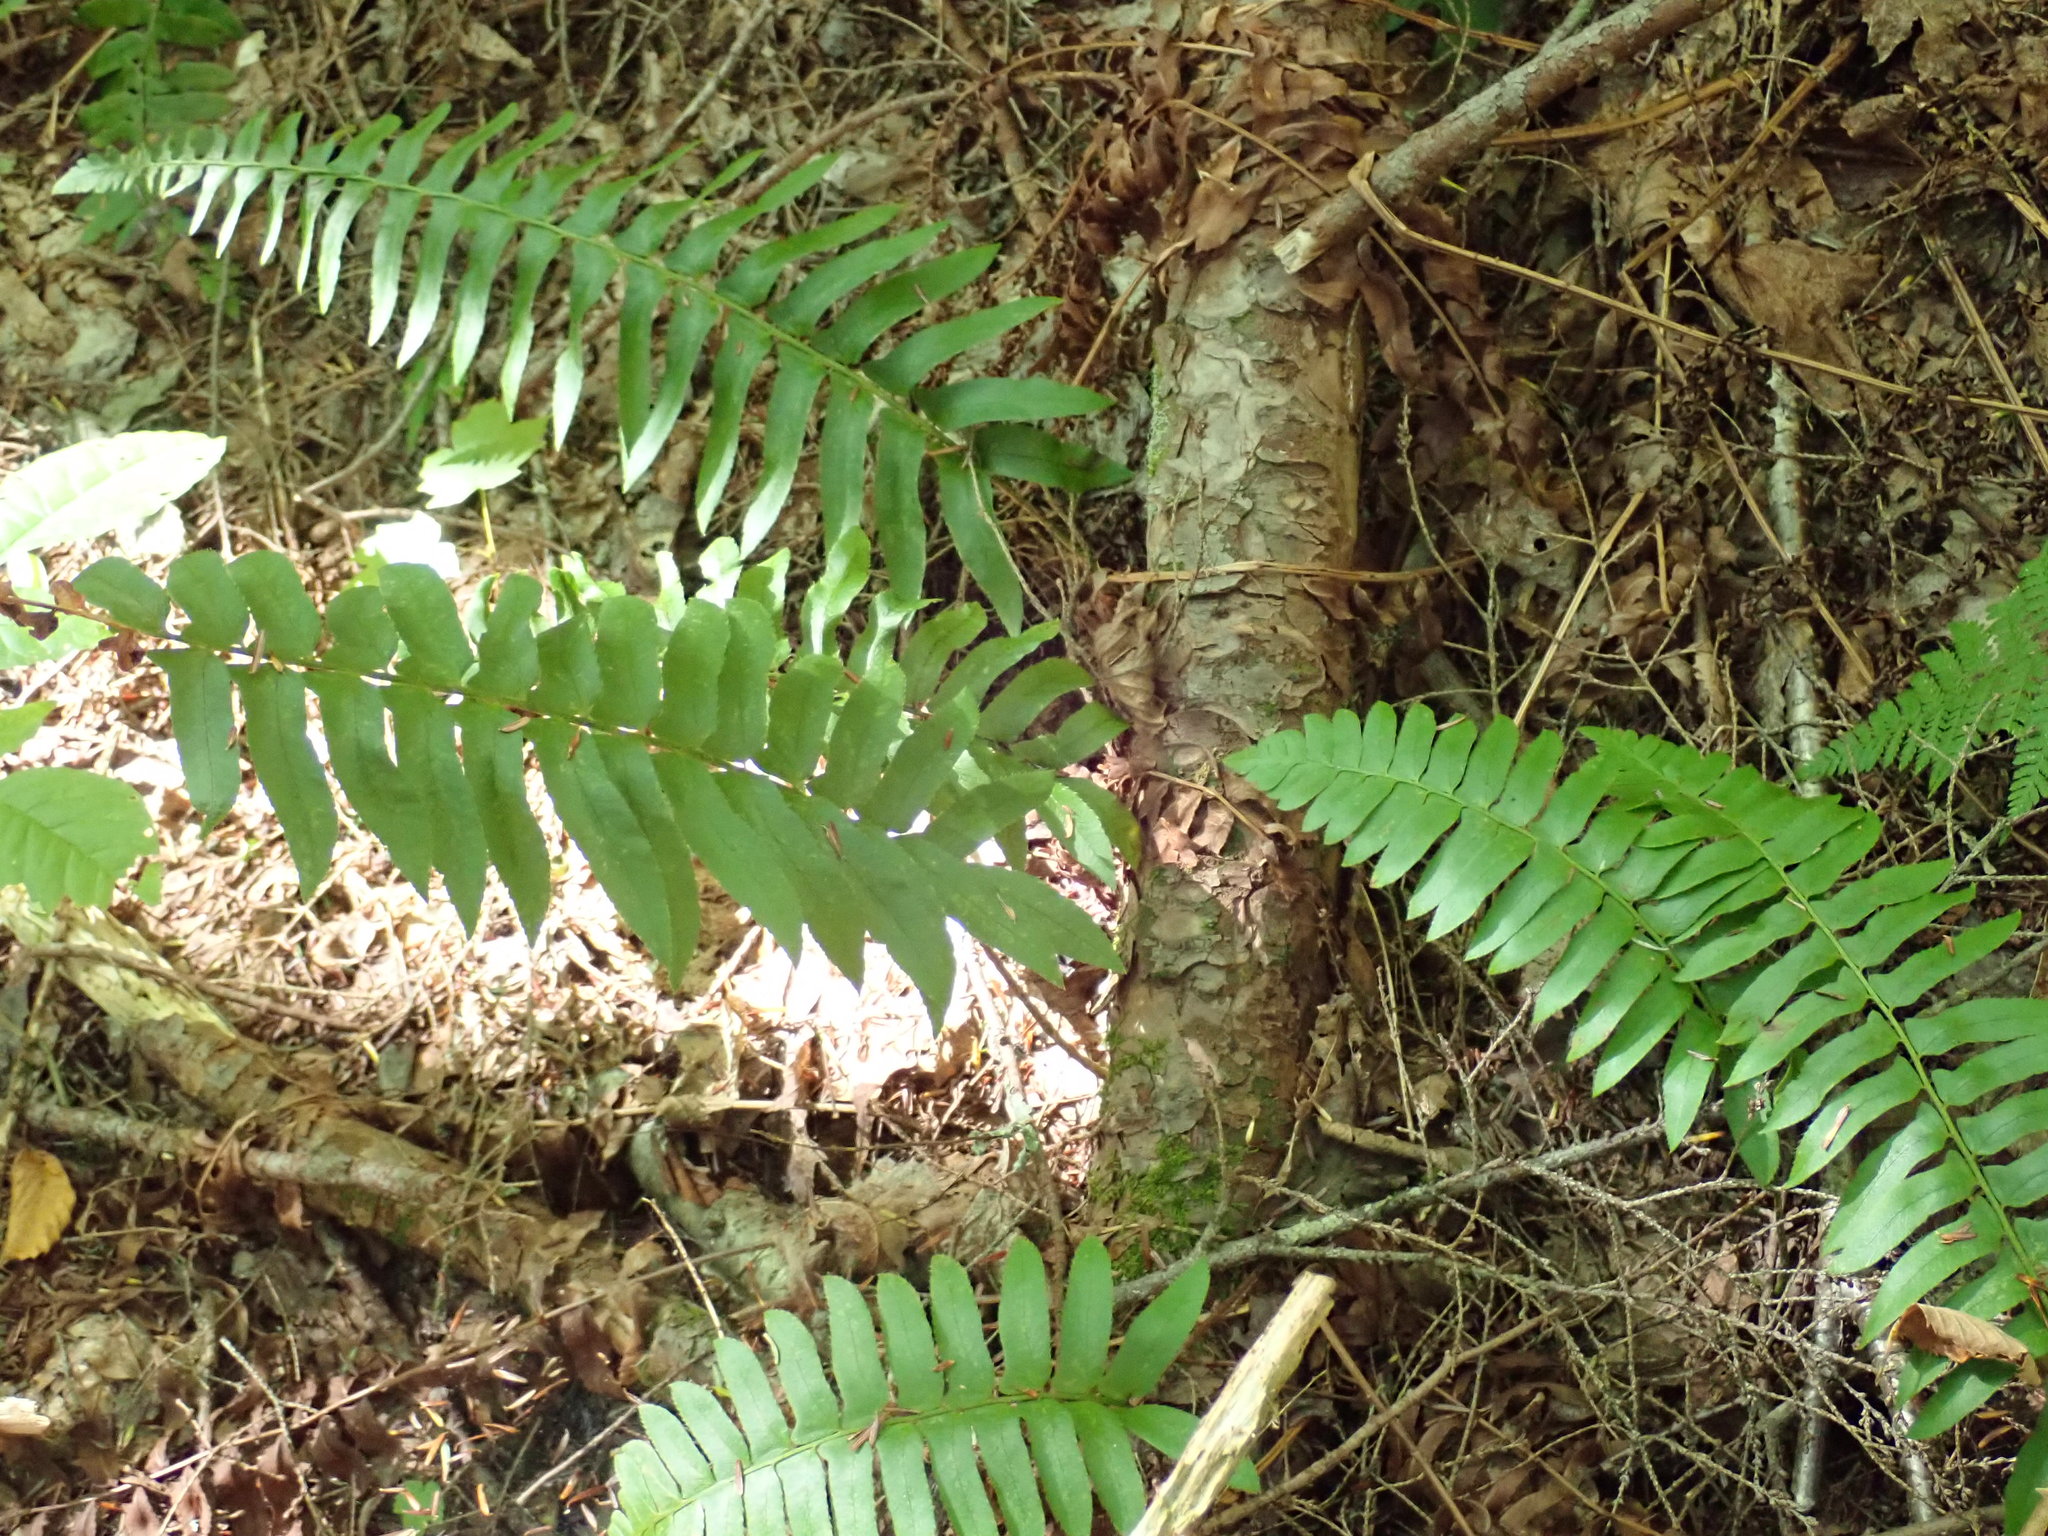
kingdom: Plantae
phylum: Tracheophyta
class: Polypodiopsida
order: Polypodiales
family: Dryopteridaceae
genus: Polystichum
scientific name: Polystichum acrostichoides
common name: Christmas fern
